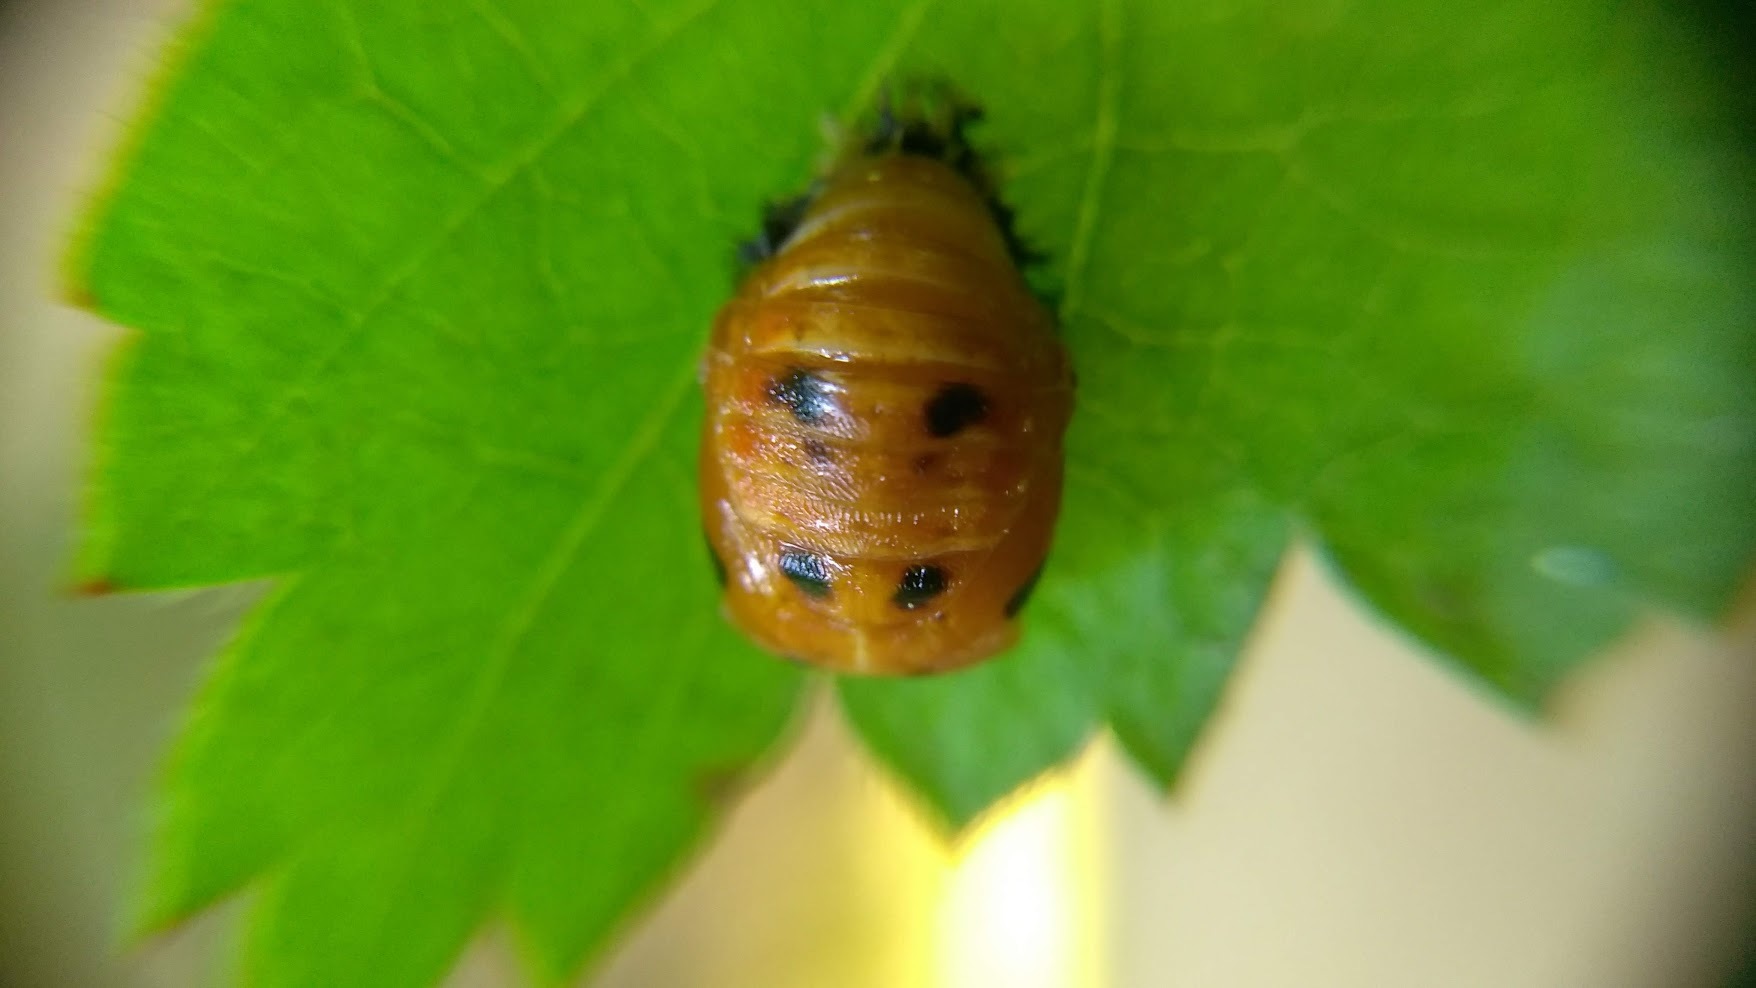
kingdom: Animalia
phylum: Arthropoda
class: Insecta
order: Coleoptera
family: Coccinellidae
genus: Harmonia
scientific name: Harmonia axyridis
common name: Harlequin ladybird
